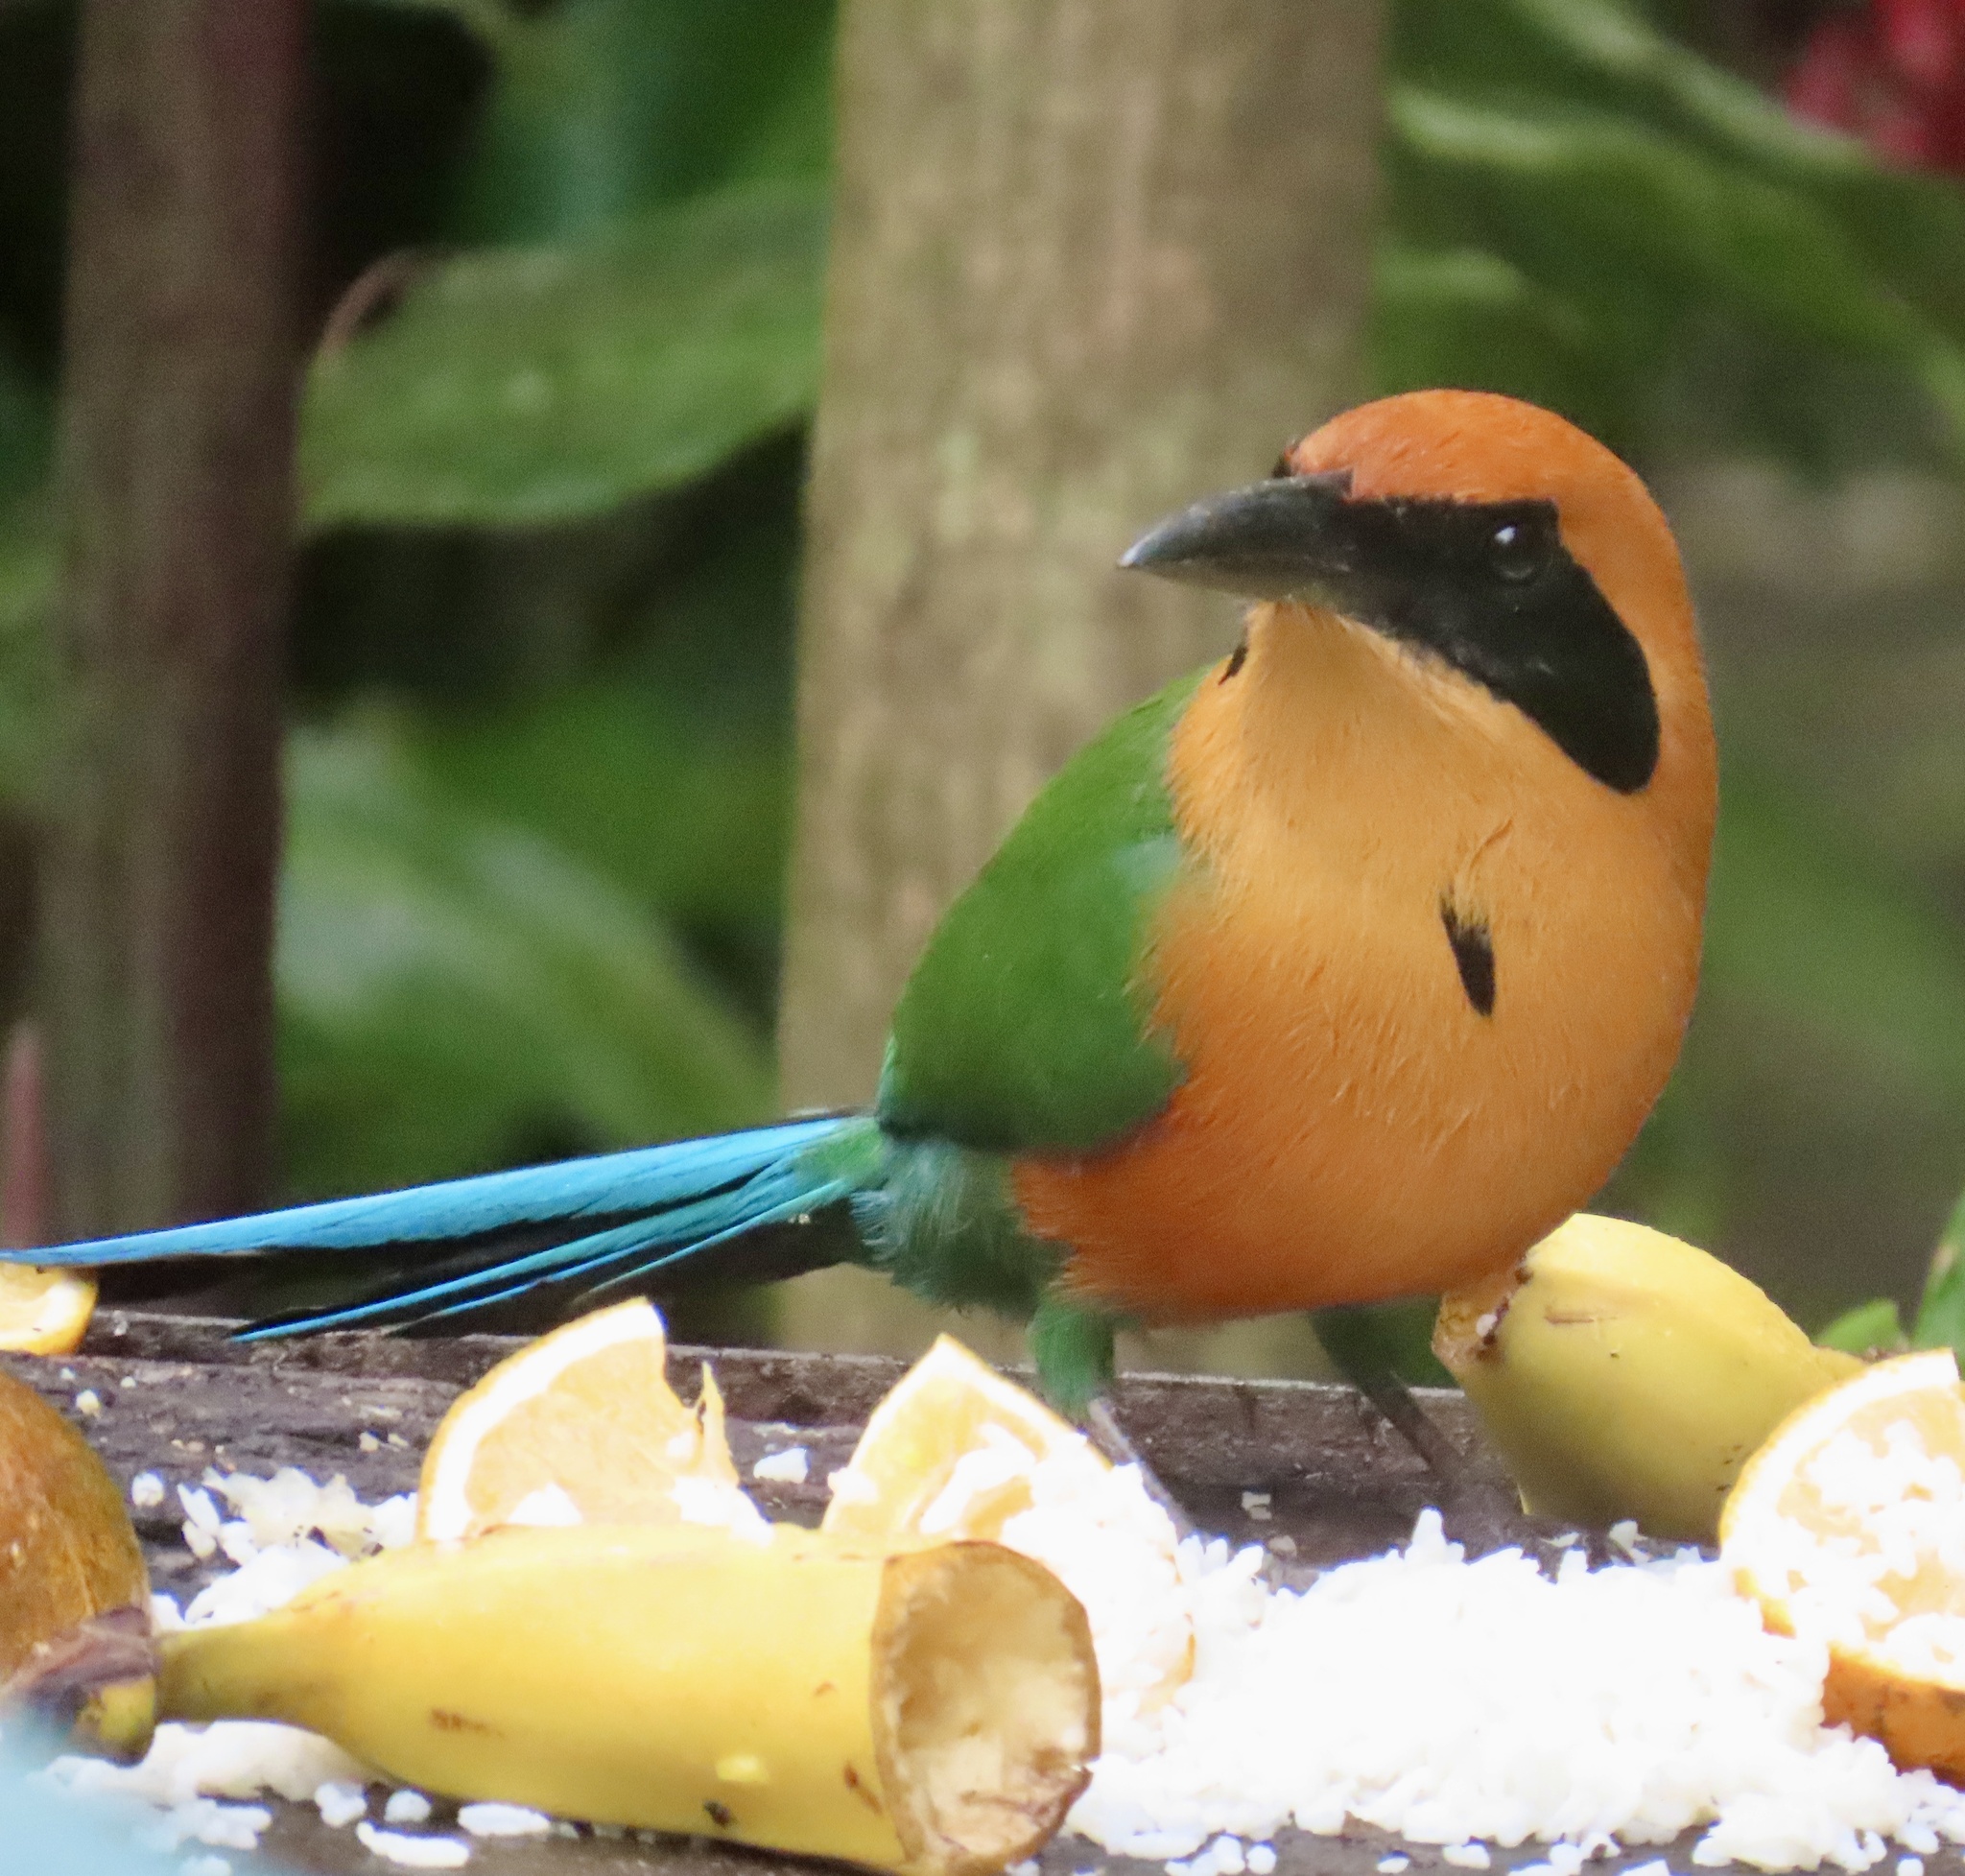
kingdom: Animalia
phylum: Chordata
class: Aves
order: Coraciiformes
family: Momotidae
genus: Baryphthengus
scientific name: Baryphthengus martii
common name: Rufous motmot
